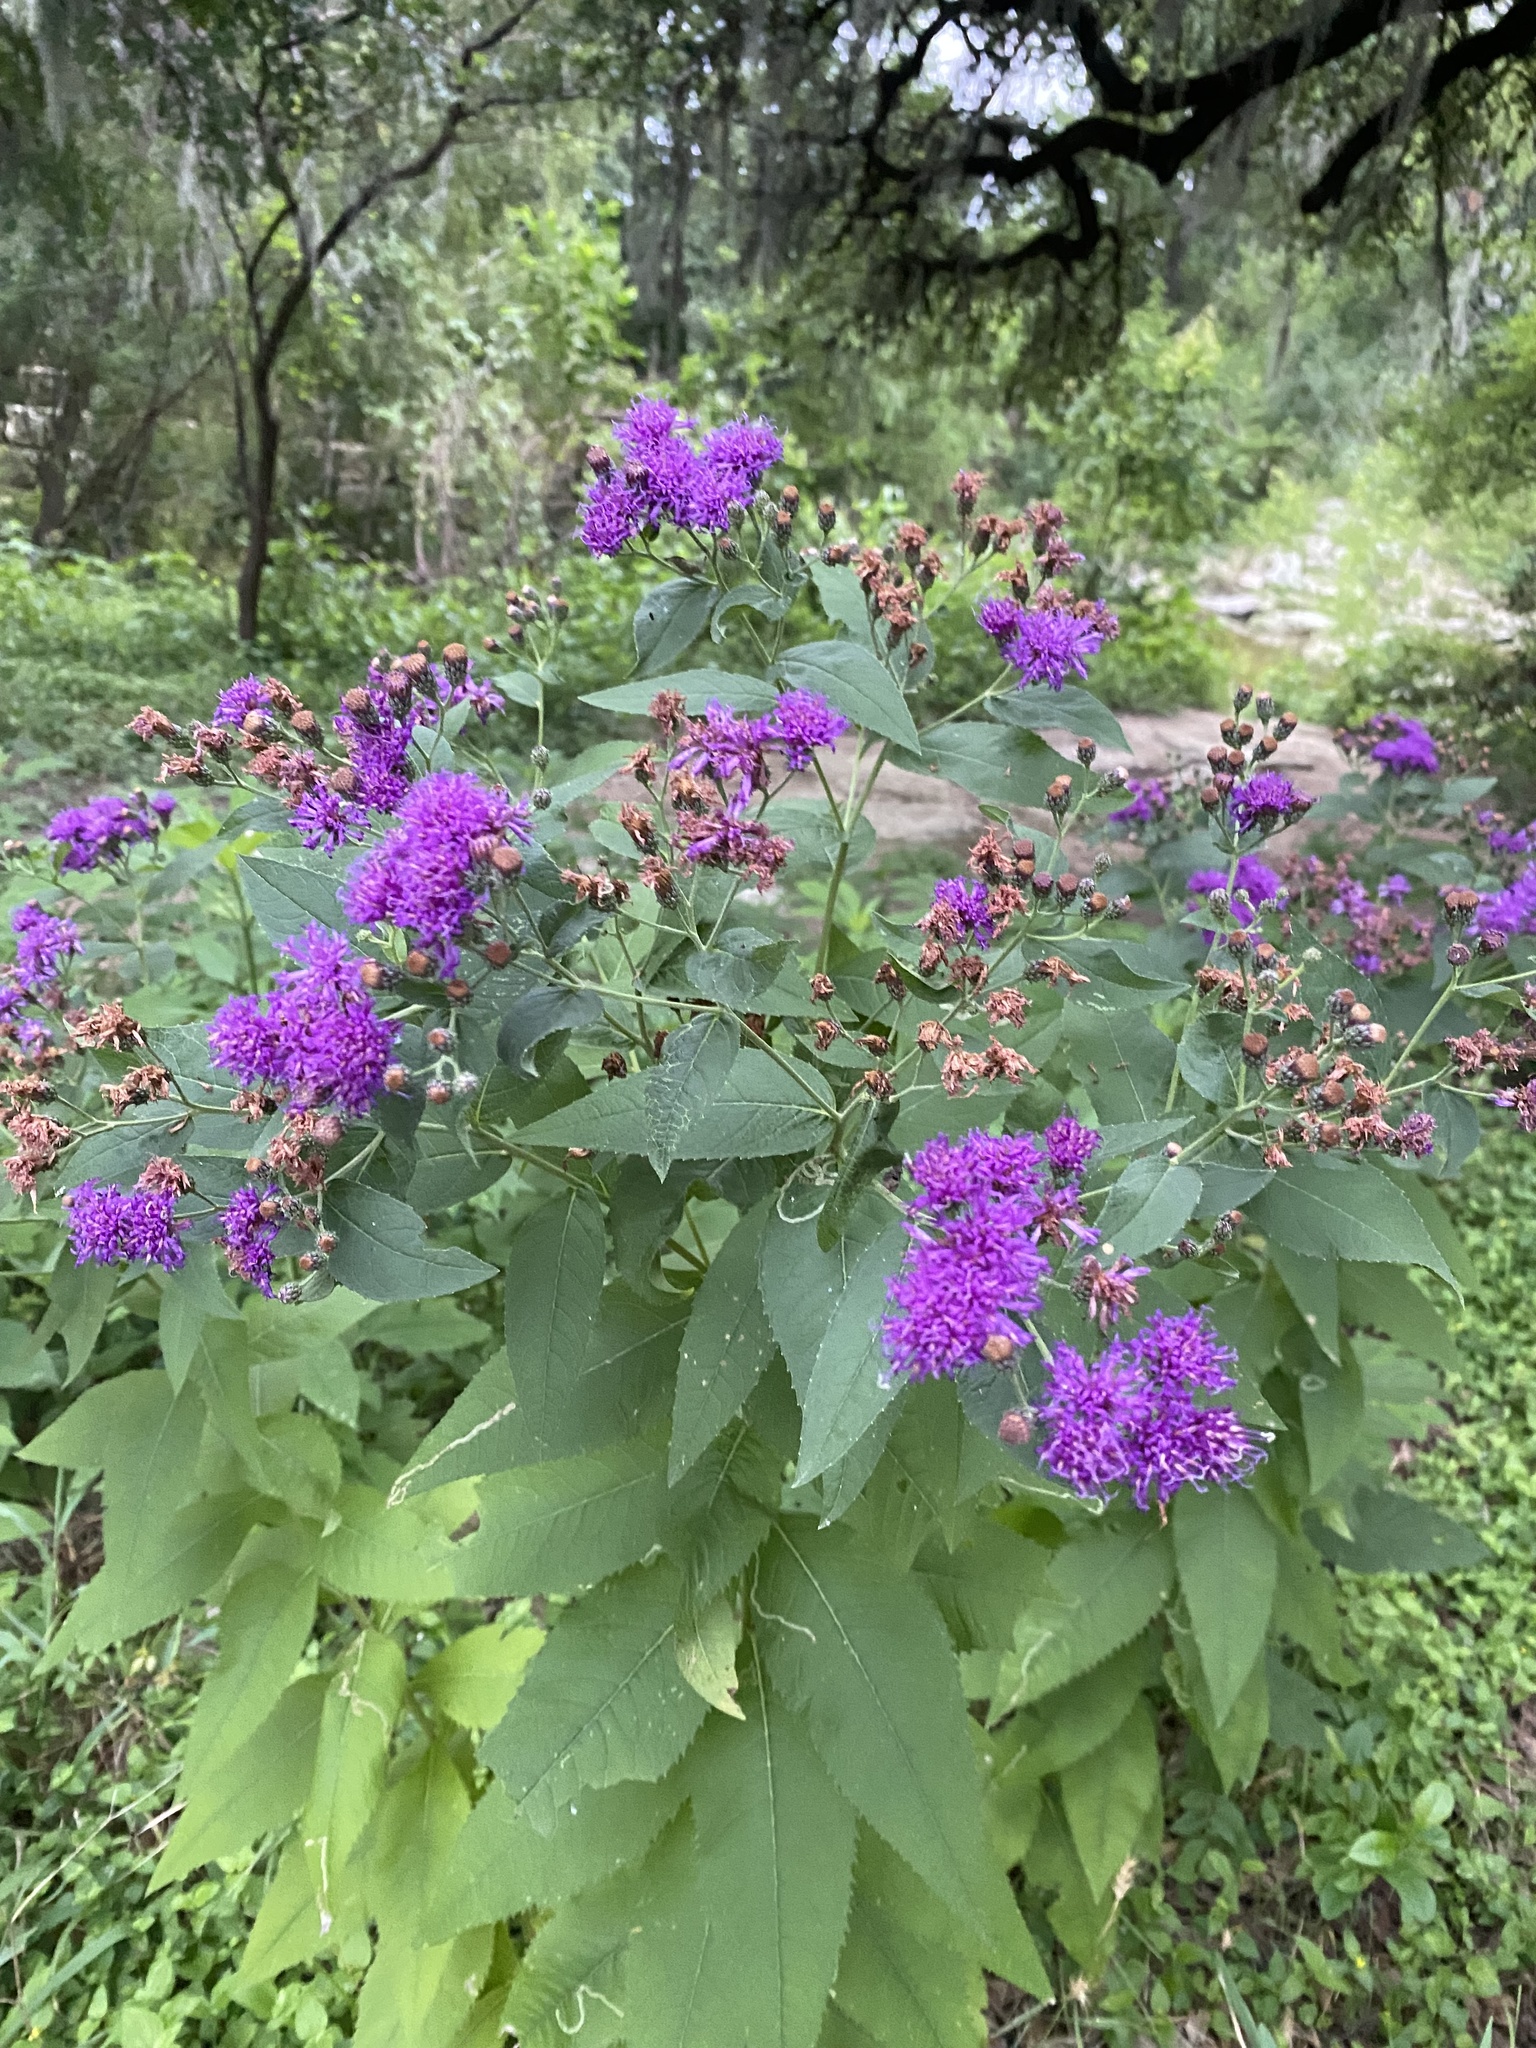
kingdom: Plantae
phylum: Tracheophyta
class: Magnoliopsida
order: Asterales
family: Asteraceae
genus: Vernonia
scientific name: Vernonia baldwinii
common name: Western ironweed
